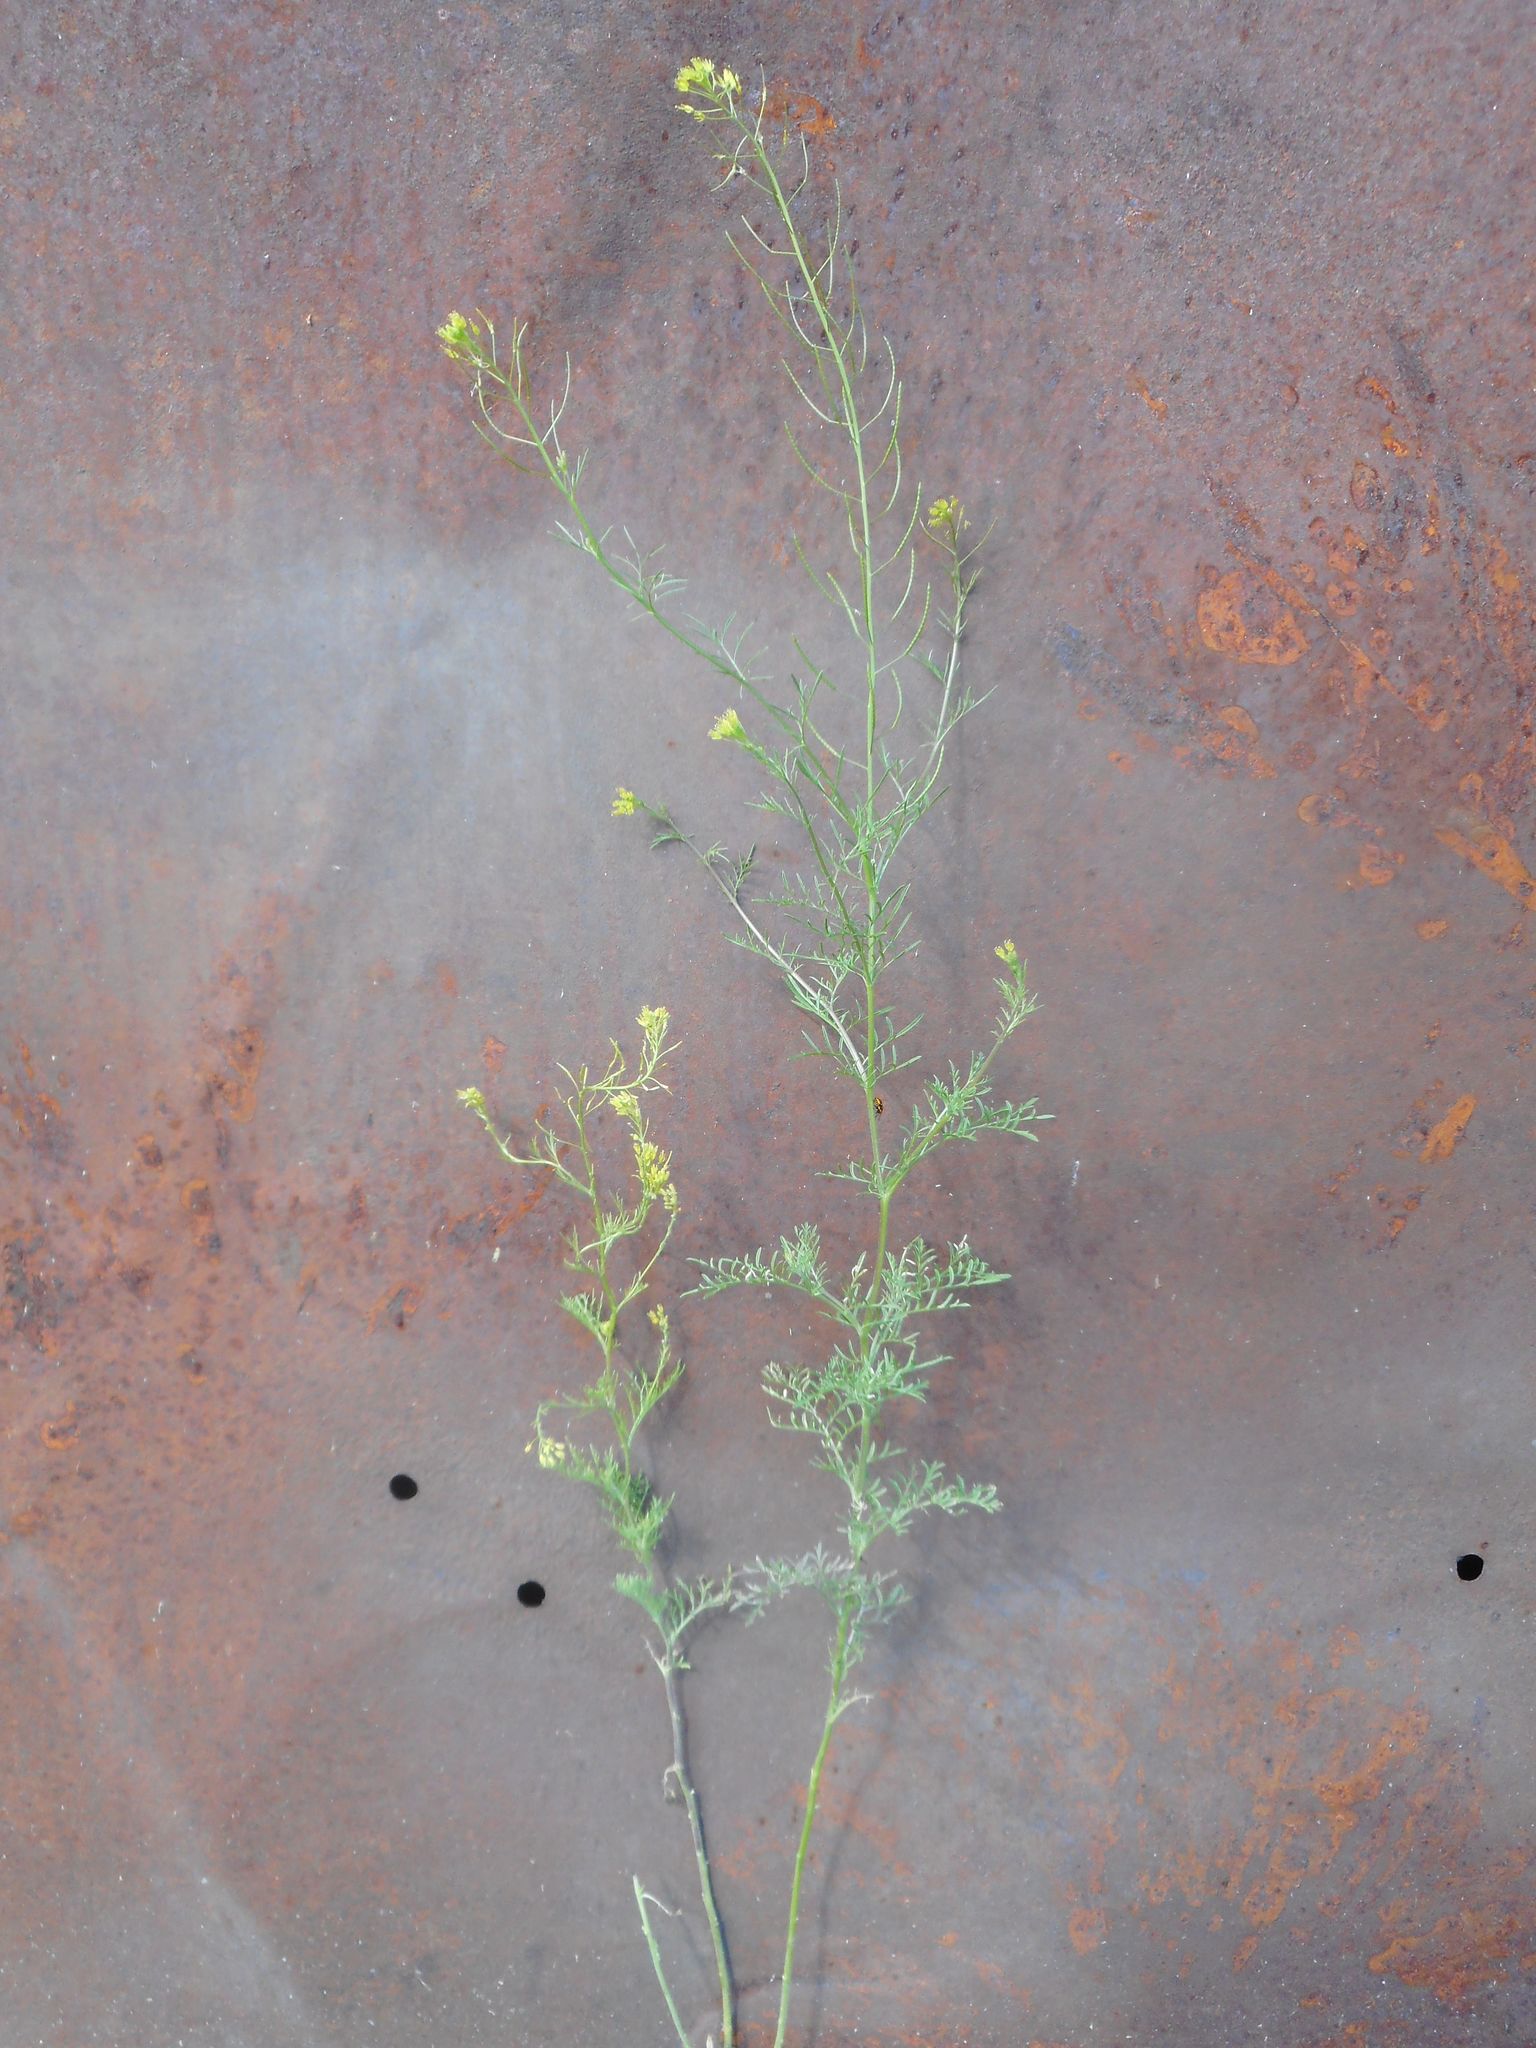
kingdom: Plantae
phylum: Tracheophyta
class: Magnoliopsida
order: Brassicales
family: Brassicaceae
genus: Descurainia
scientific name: Descurainia sophia
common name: Flixweed
